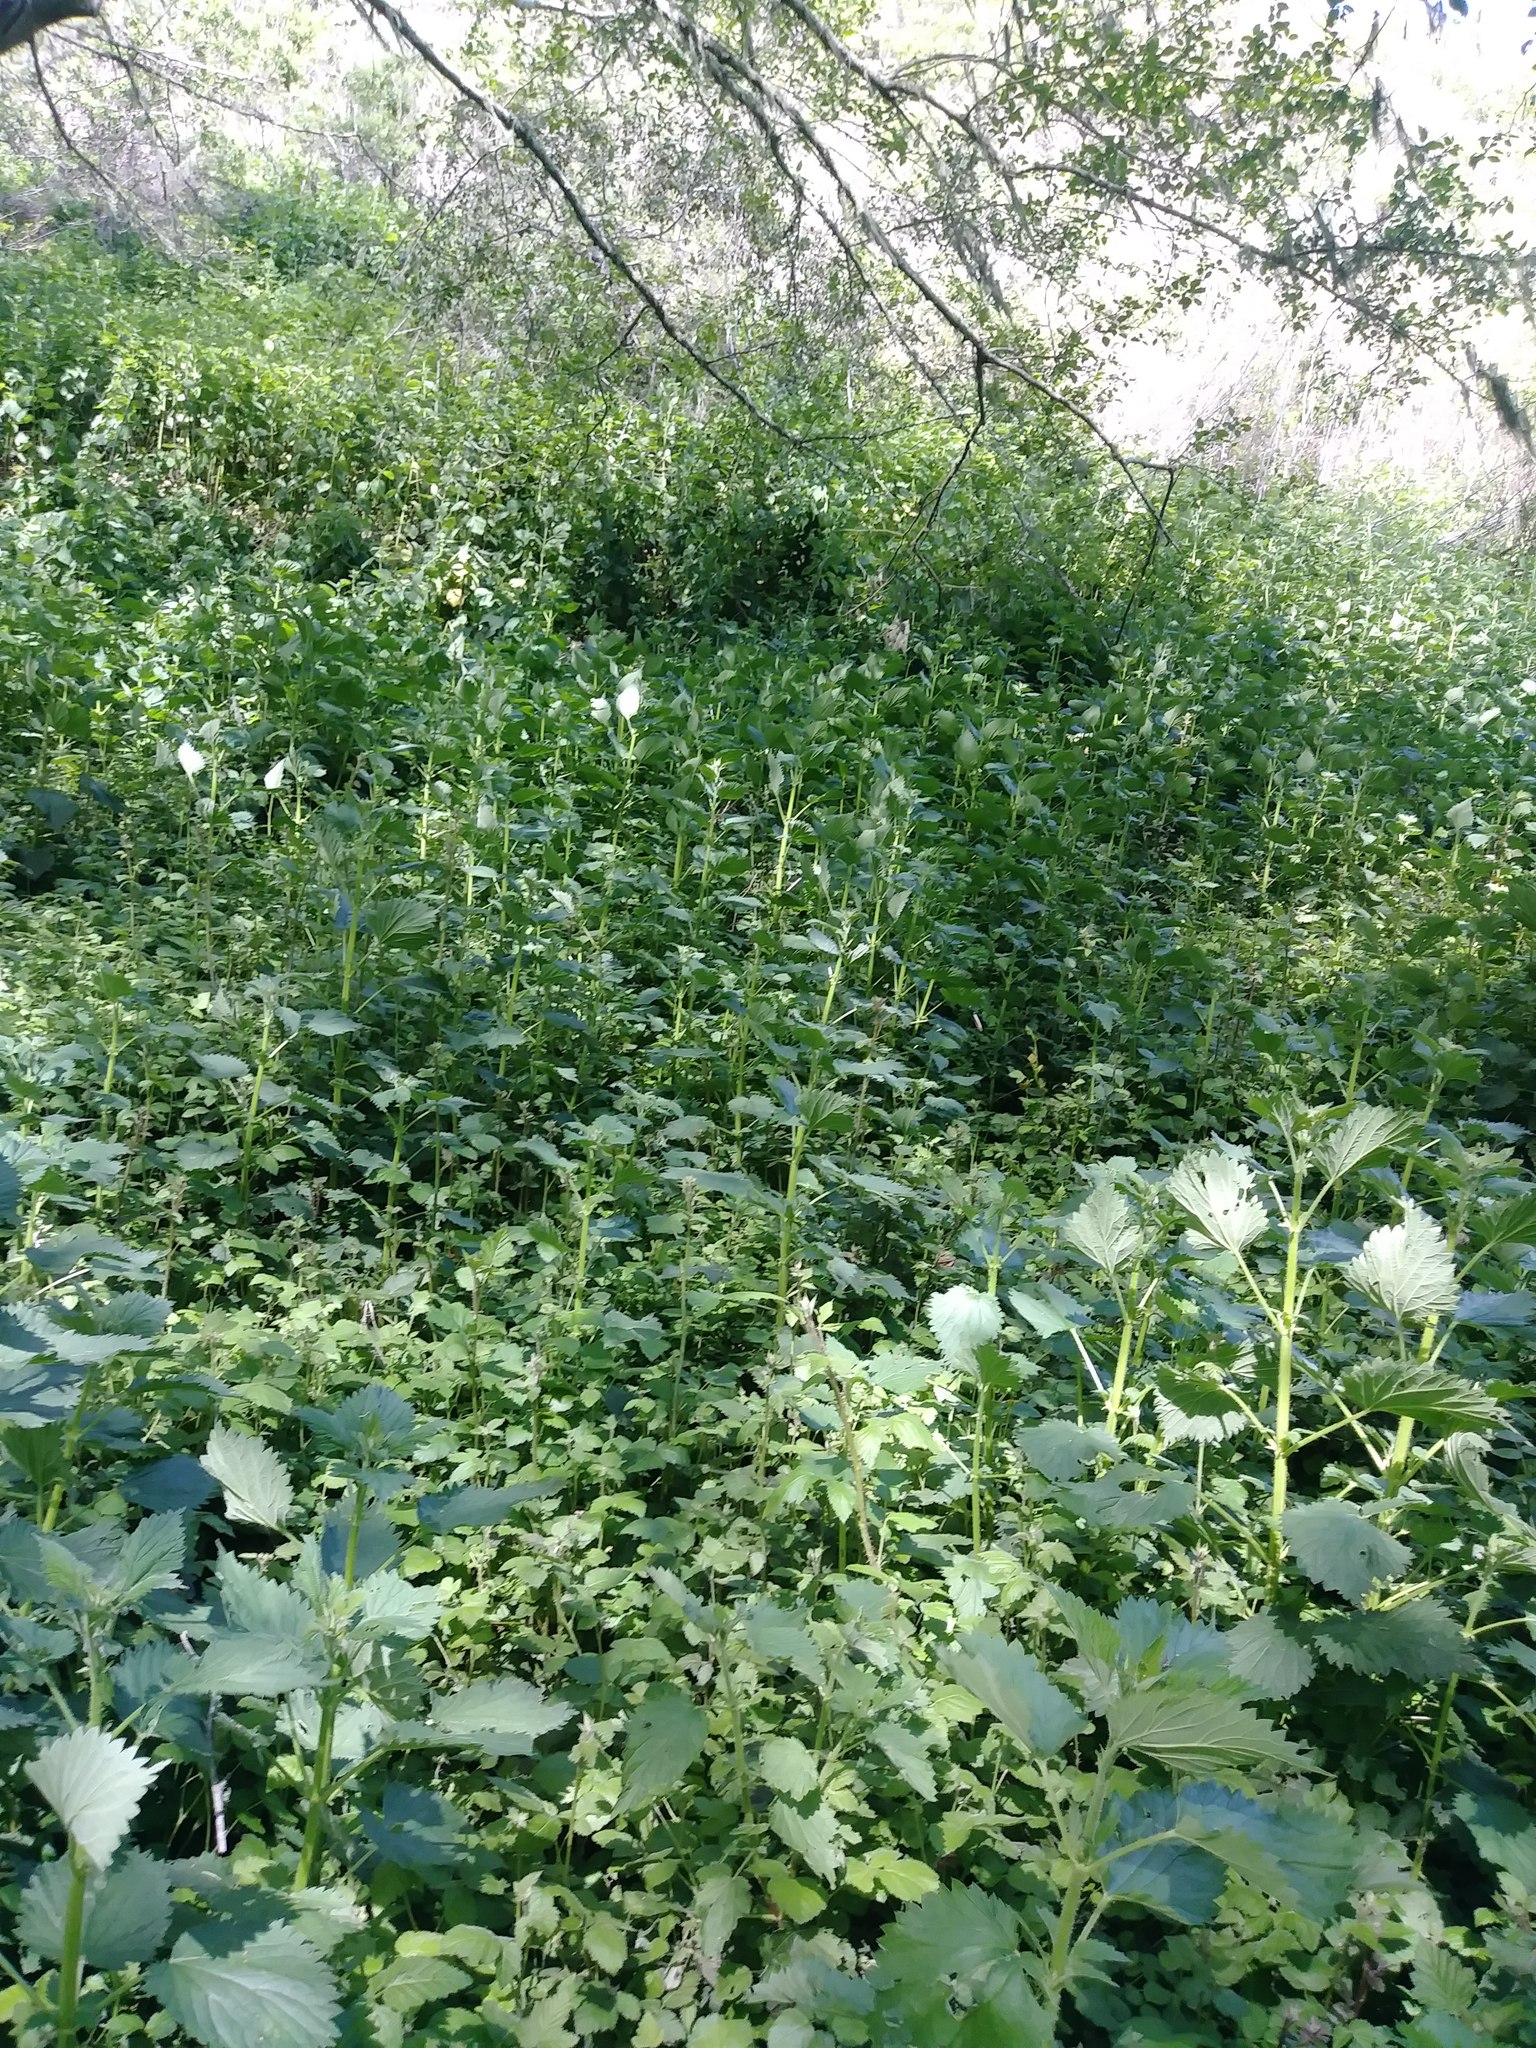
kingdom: Plantae
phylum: Tracheophyta
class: Magnoliopsida
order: Rosales
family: Urticaceae
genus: Urtica
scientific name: Urtica dioica
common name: Common nettle
